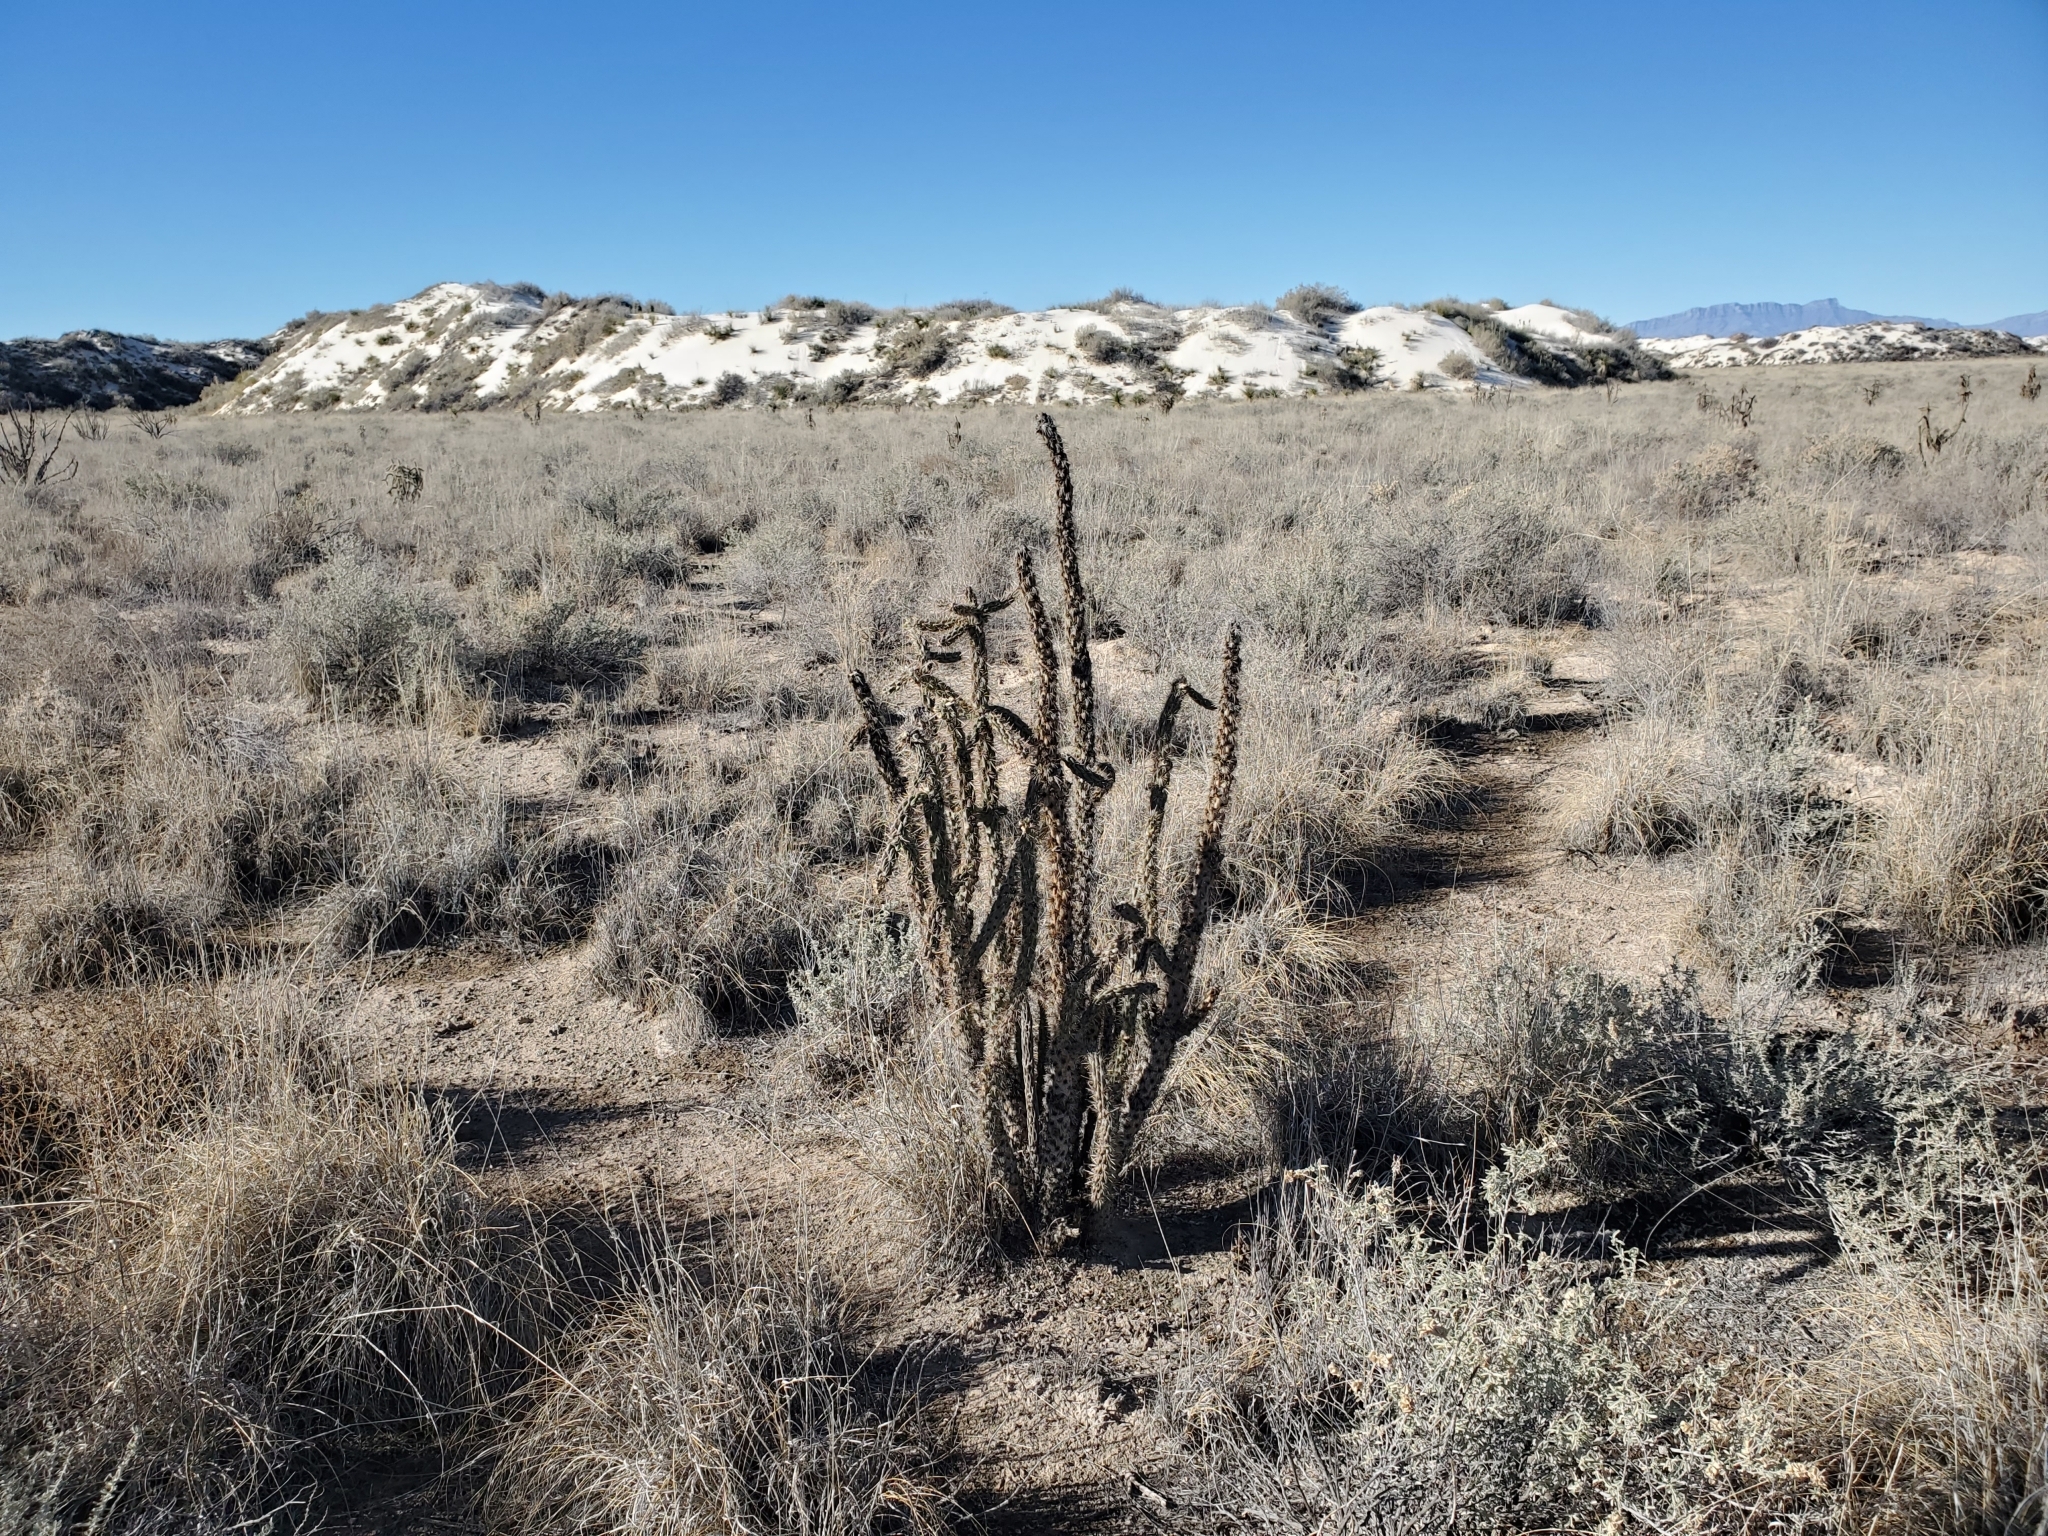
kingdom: Plantae
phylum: Tracheophyta
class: Magnoliopsida
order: Caryophyllales
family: Cactaceae
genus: Cylindropuntia
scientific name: Cylindropuntia imbricata
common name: Candelabrum cactus
